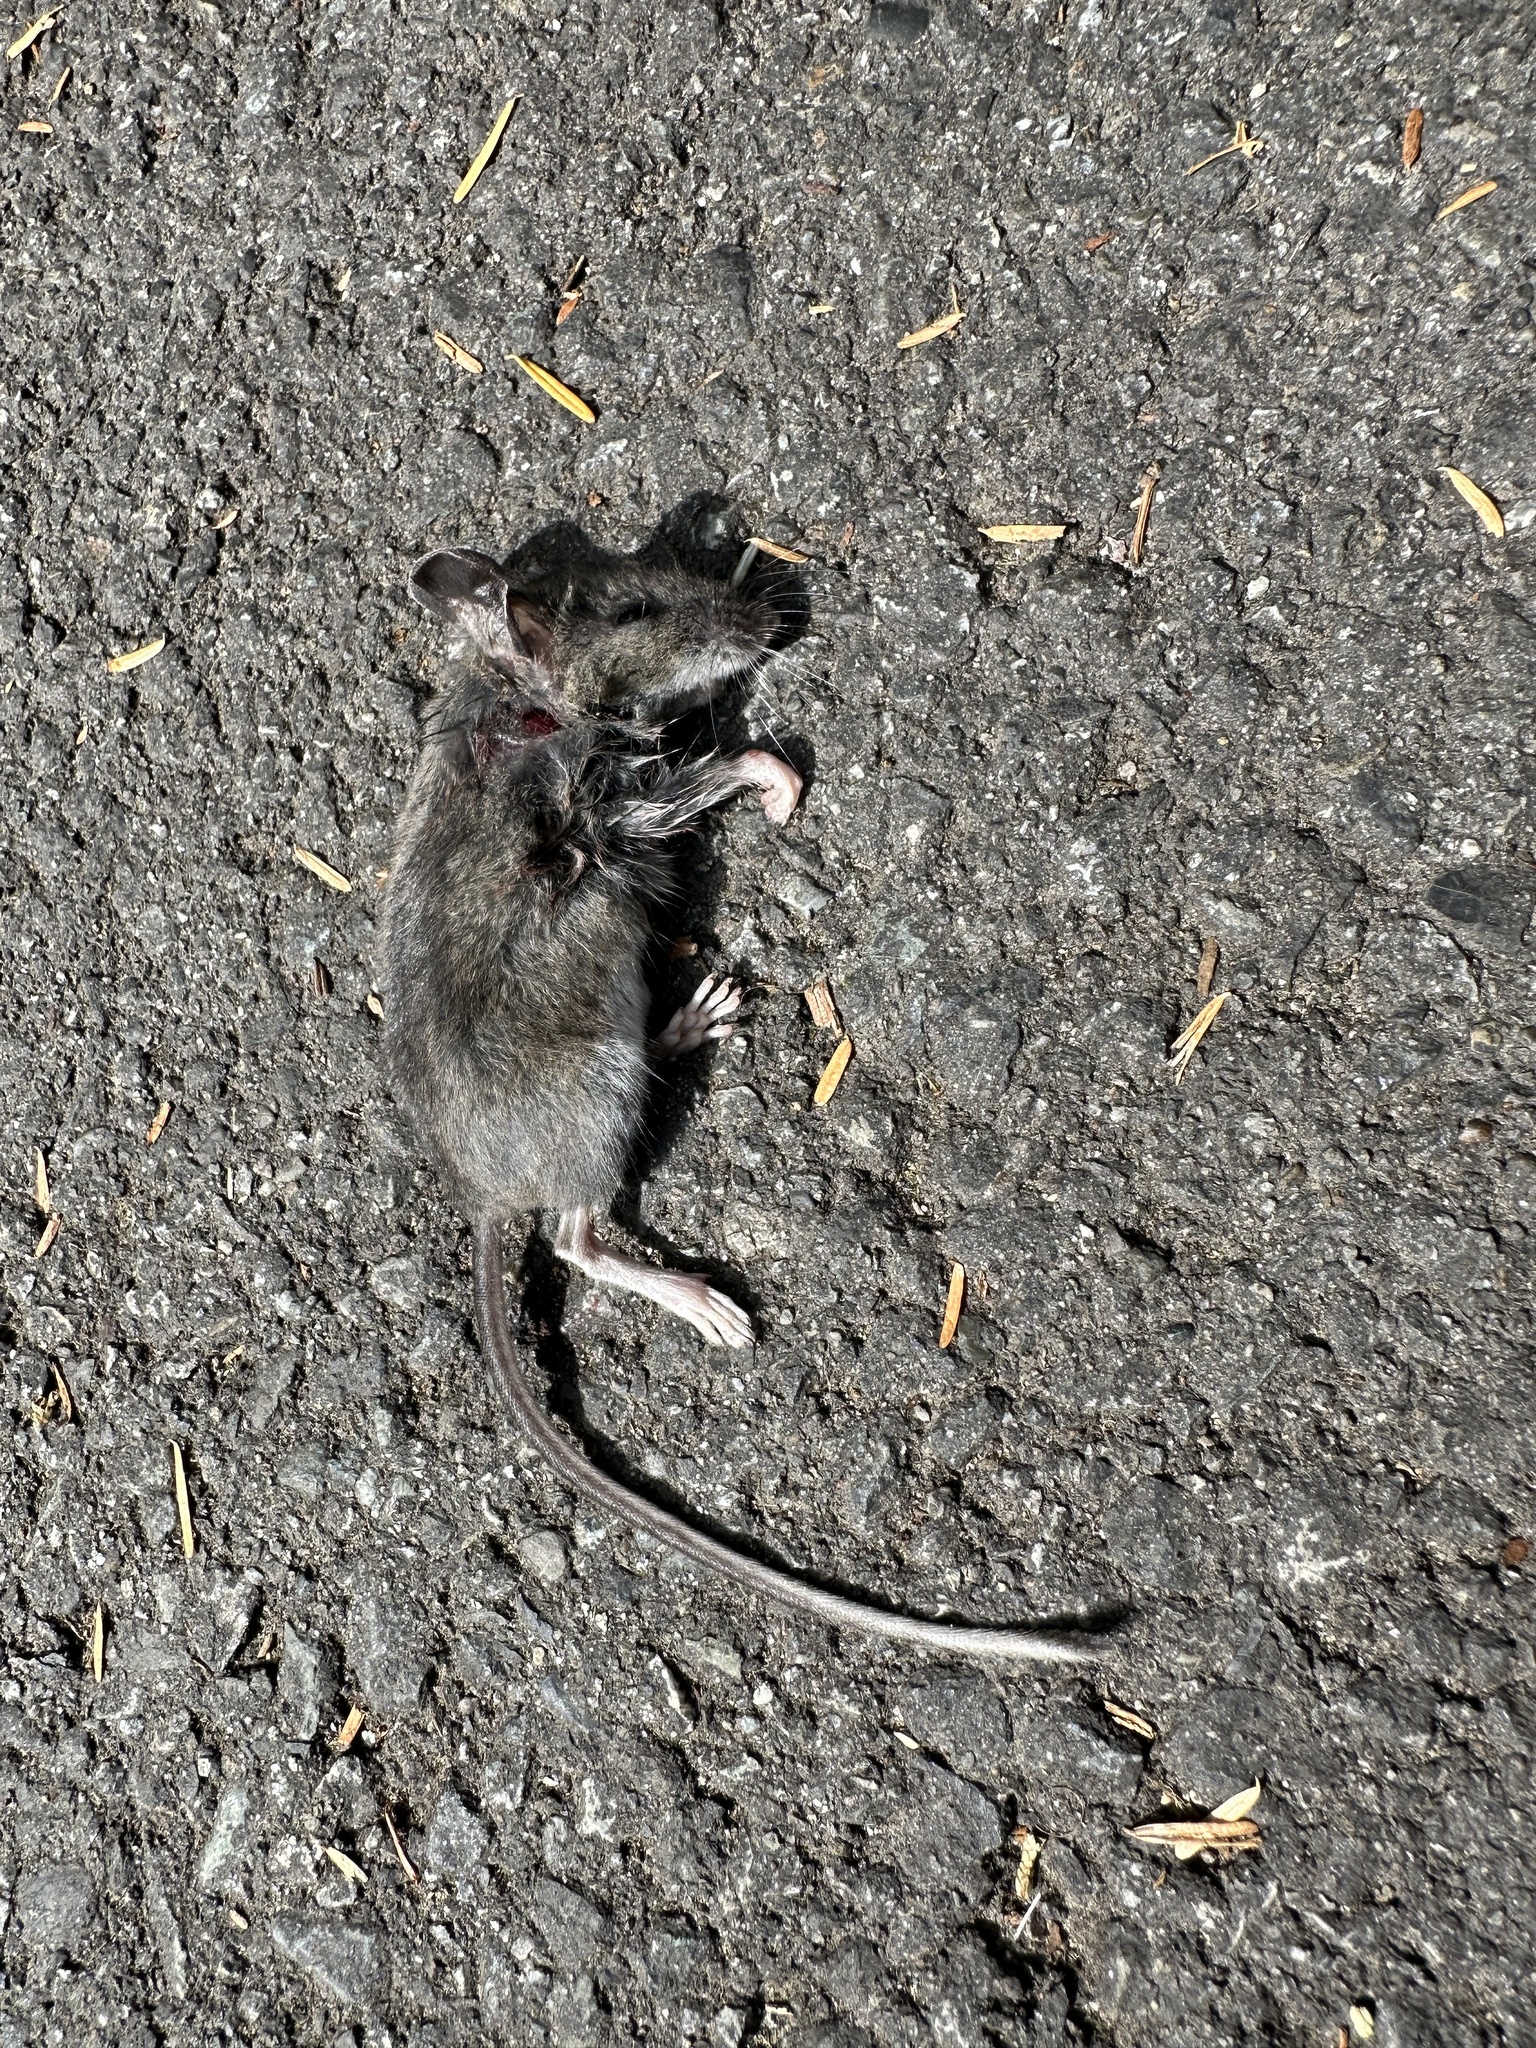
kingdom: Animalia
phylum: Chordata
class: Mammalia
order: Rodentia
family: Cricetidae
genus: Peromyscus
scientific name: Peromyscus maniculatus
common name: Deer mouse
